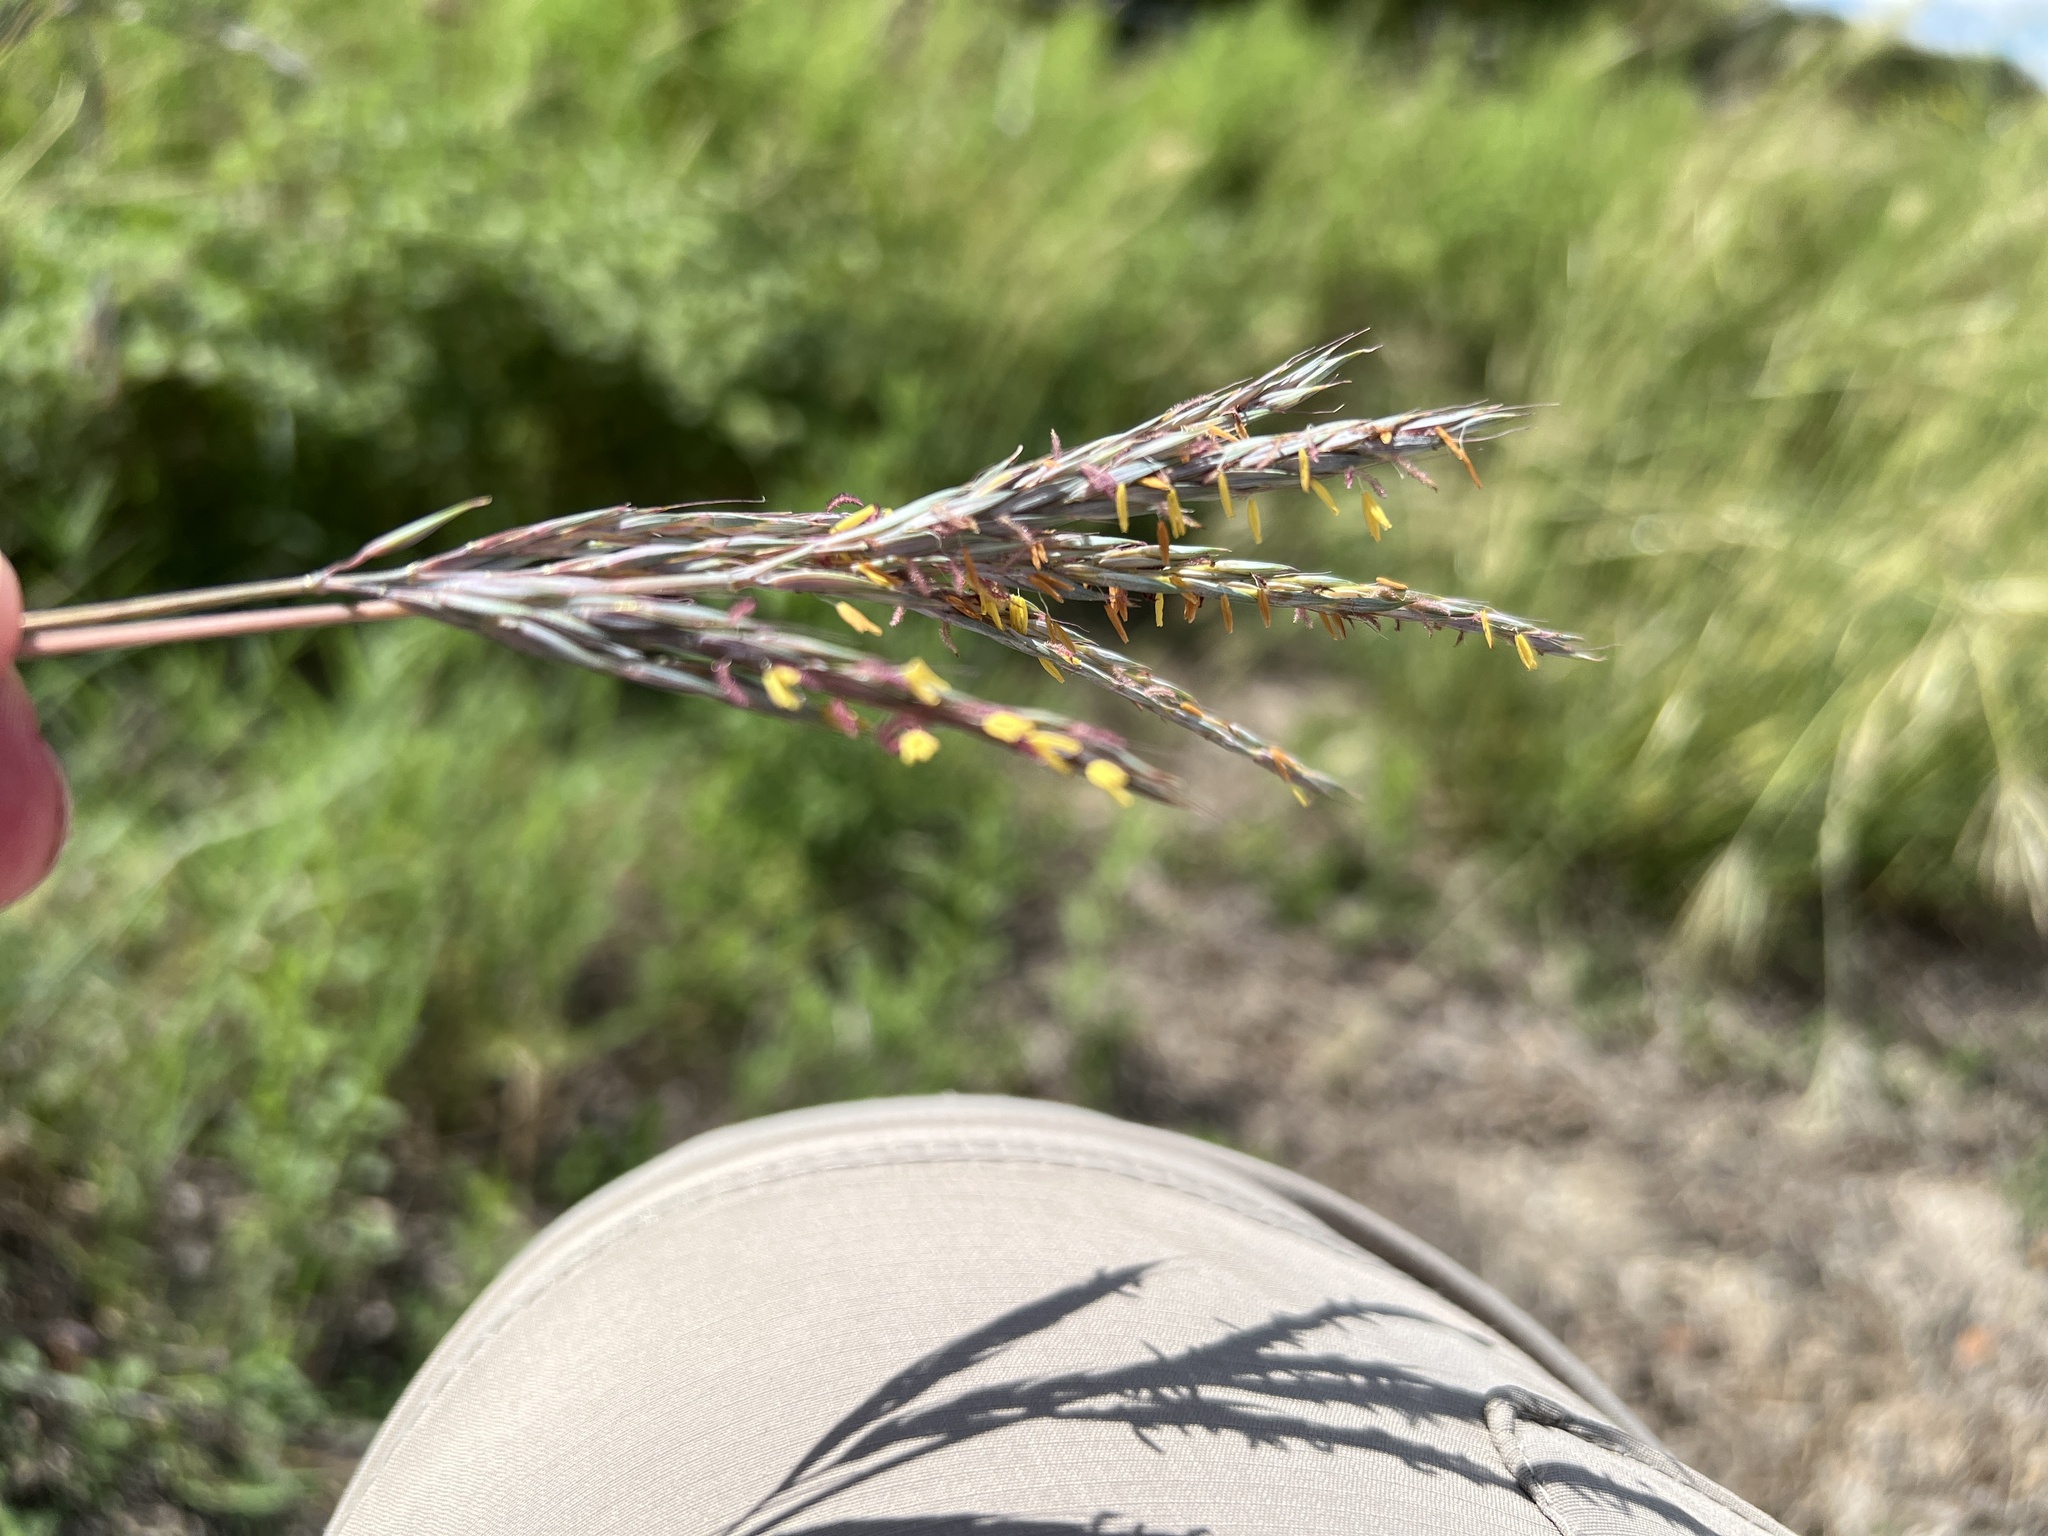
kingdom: Plantae
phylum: Tracheophyta
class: Liliopsida
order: Poales
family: Poaceae
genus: Andropogon
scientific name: Andropogon gerardi
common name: Big bluestem
